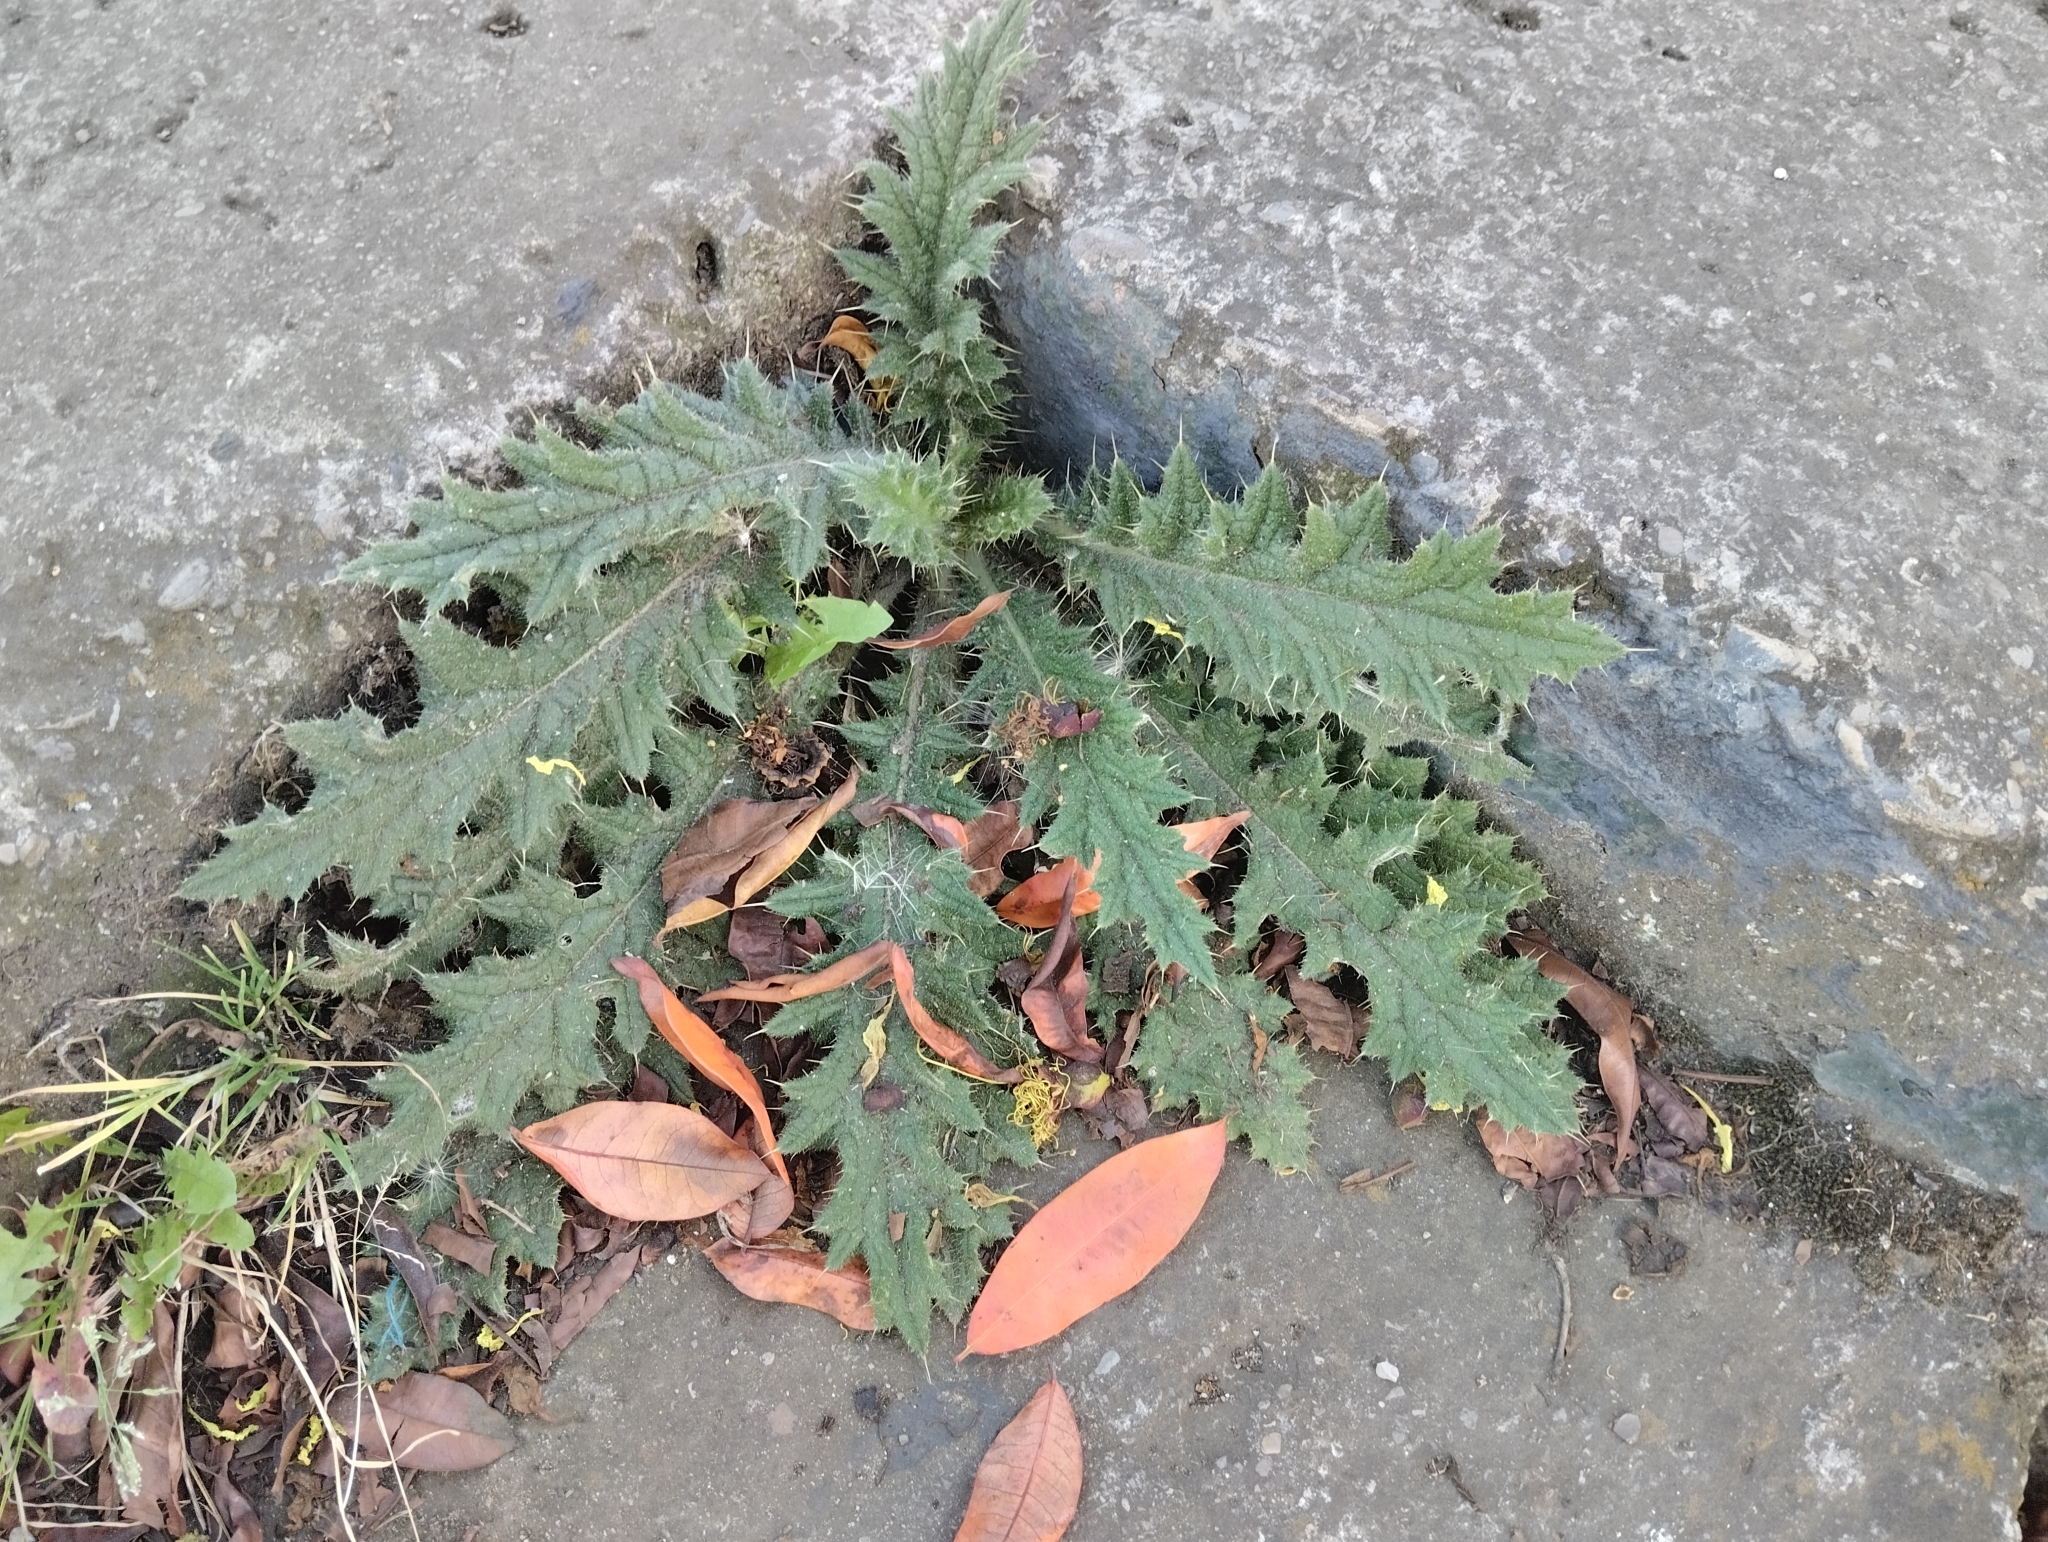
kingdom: Plantae
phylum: Tracheophyta
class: Magnoliopsida
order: Asterales
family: Asteraceae
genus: Cirsium
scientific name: Cirsium vulgare
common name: Bull thistle
